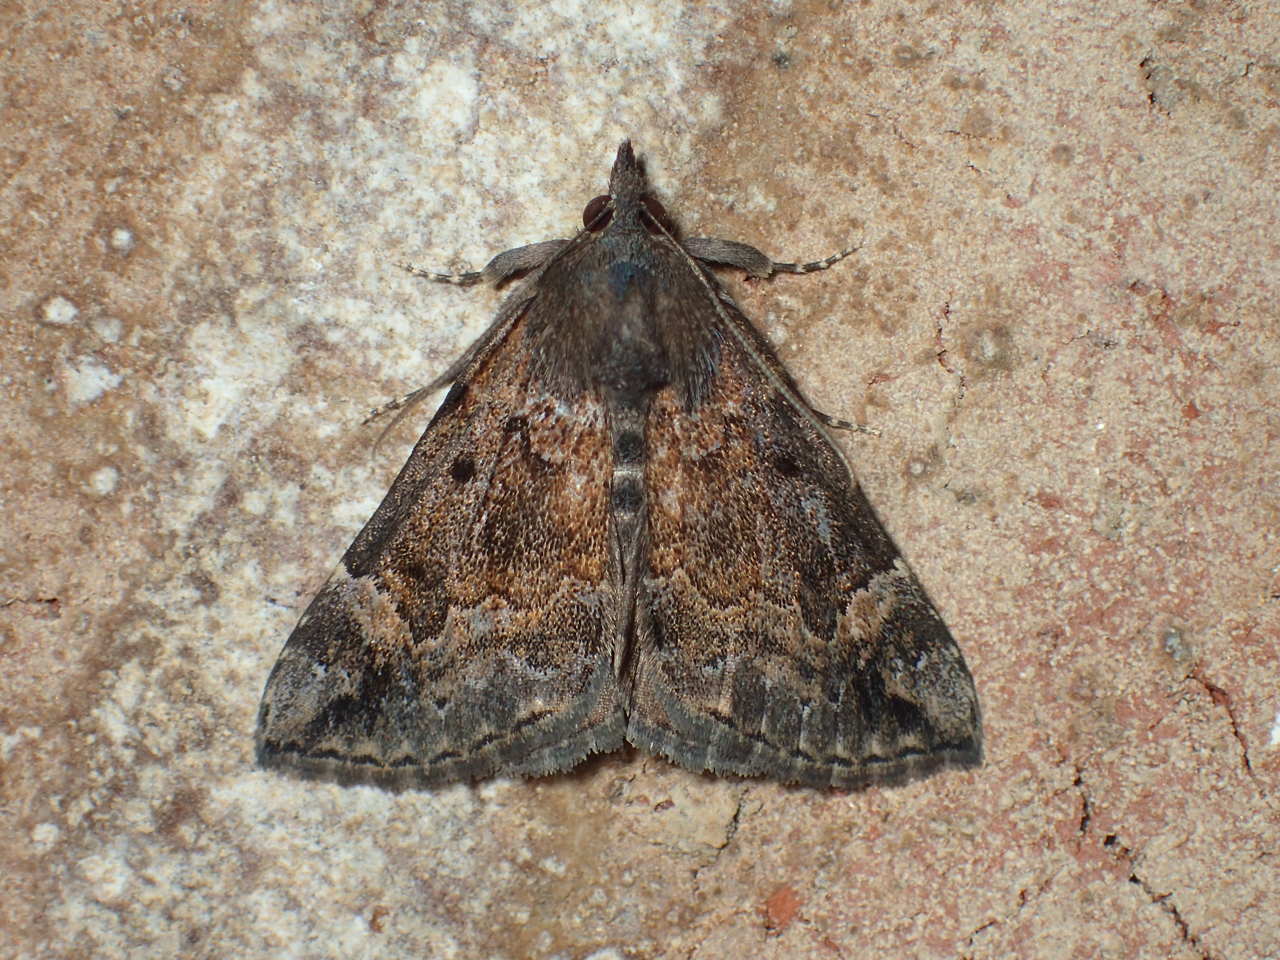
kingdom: Animalia
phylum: Arthropoda
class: Insecta
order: Lepidoptera
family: Erebidae
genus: Hypena
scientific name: Hypena palparia
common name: Mottled bomolocha moth
